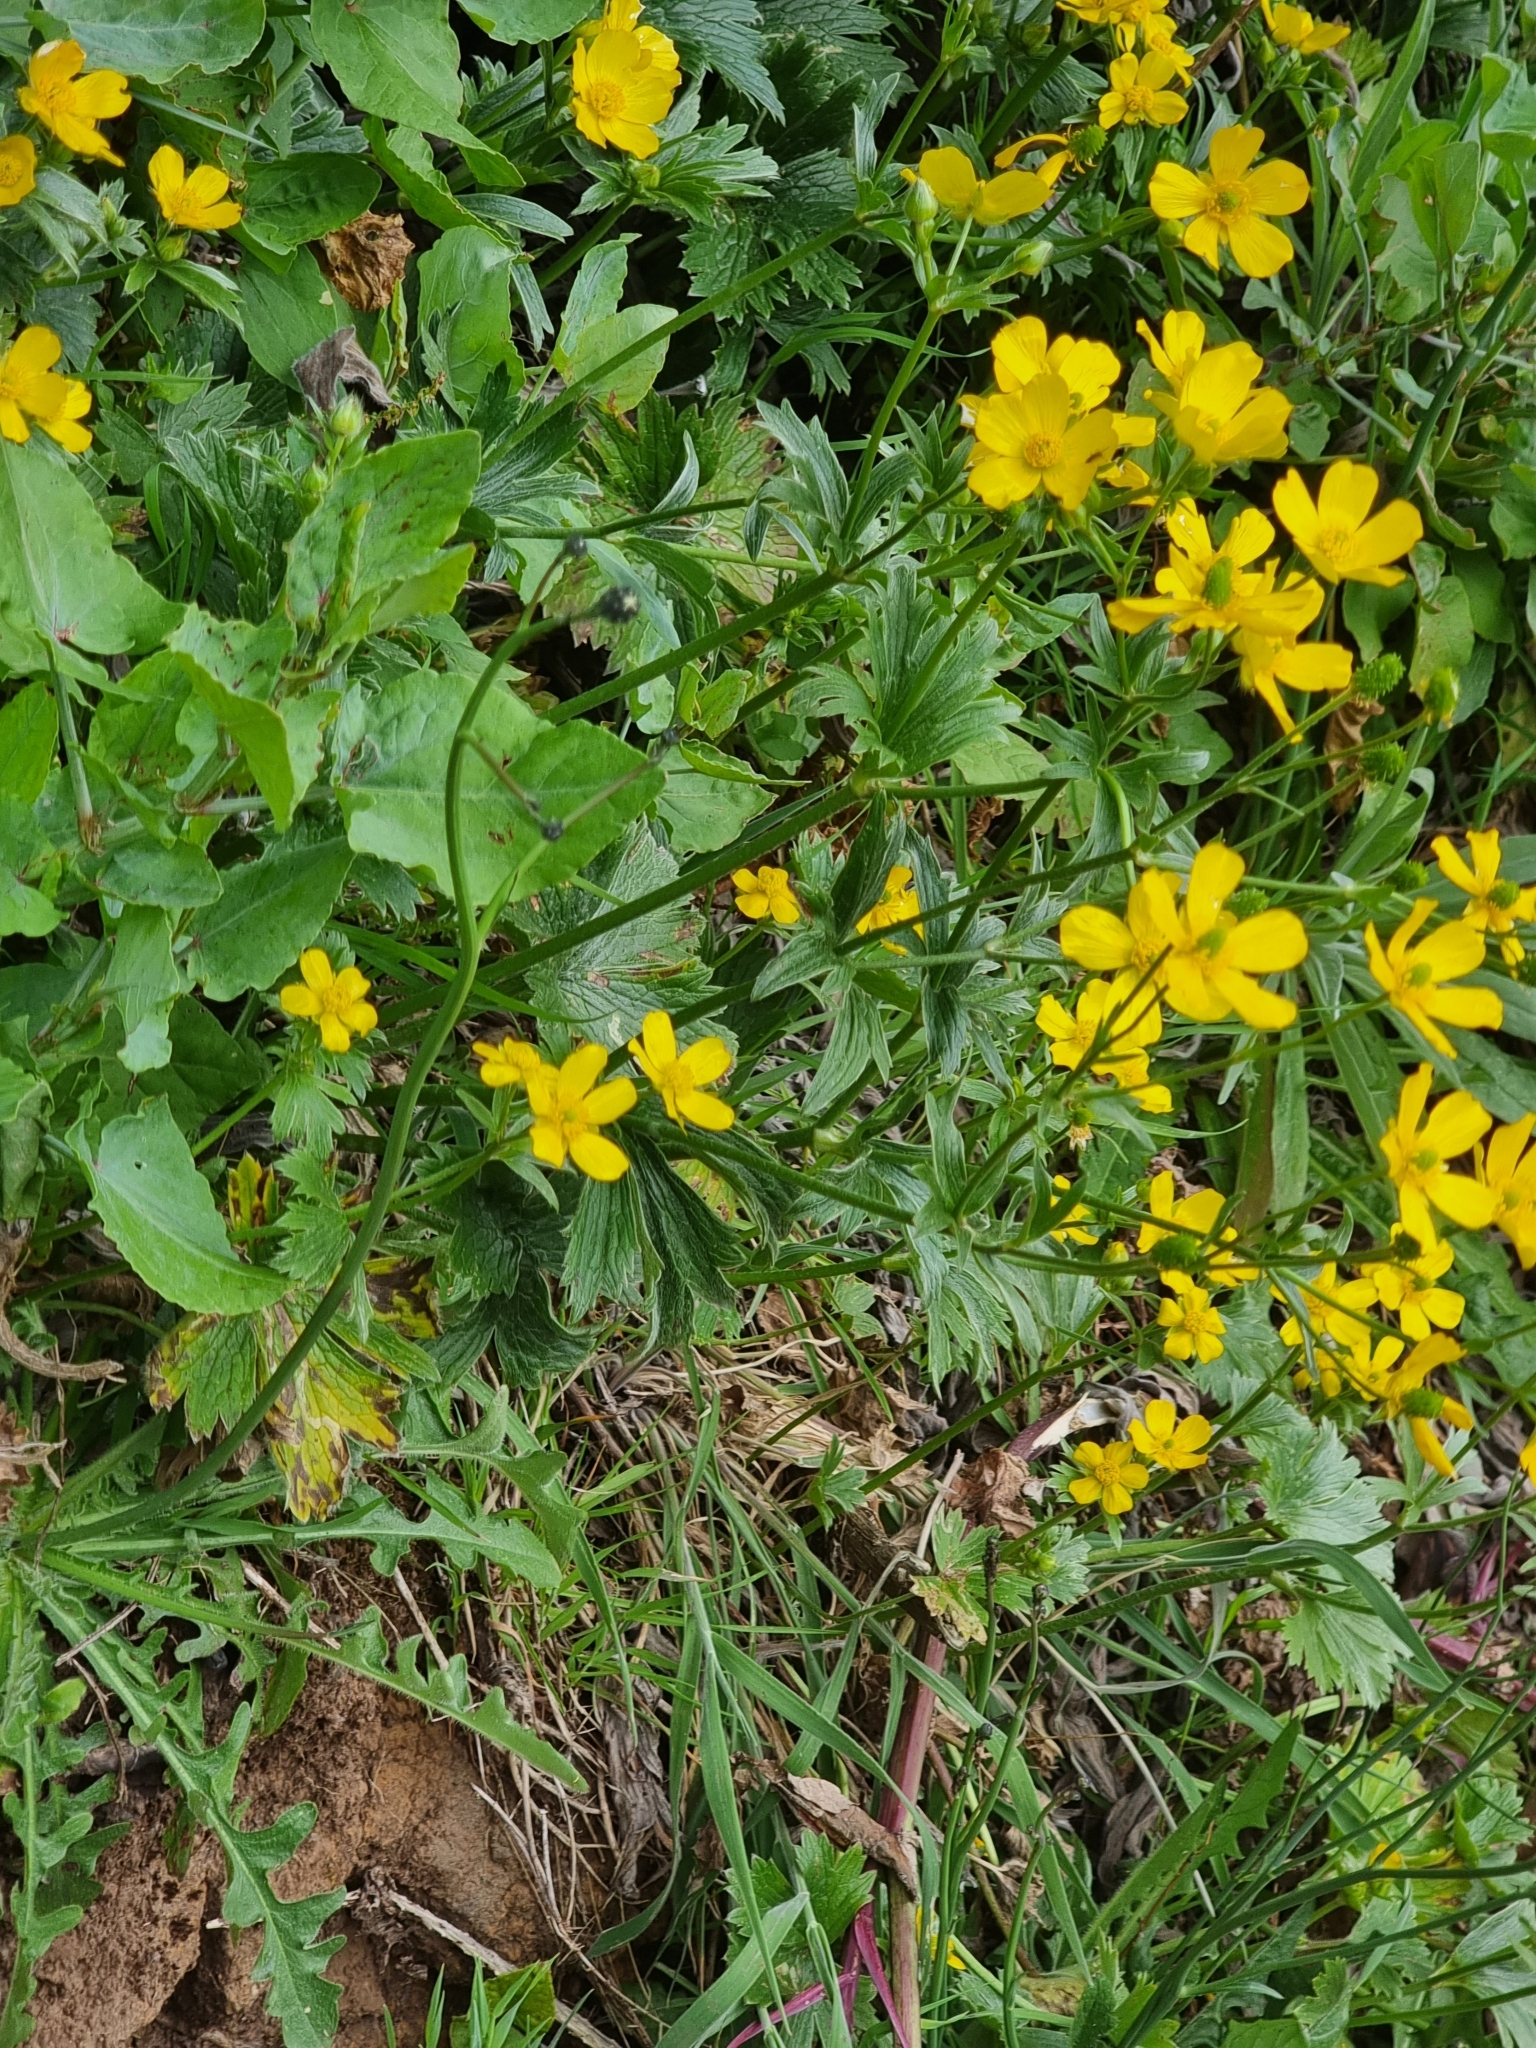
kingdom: Plantae
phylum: Tracheophyta
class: Magnoliopsida
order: Ranunculales
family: Ranunculaceae
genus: Ranunculus
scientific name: Ranunculus cortusifolius
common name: Azores buttercup
